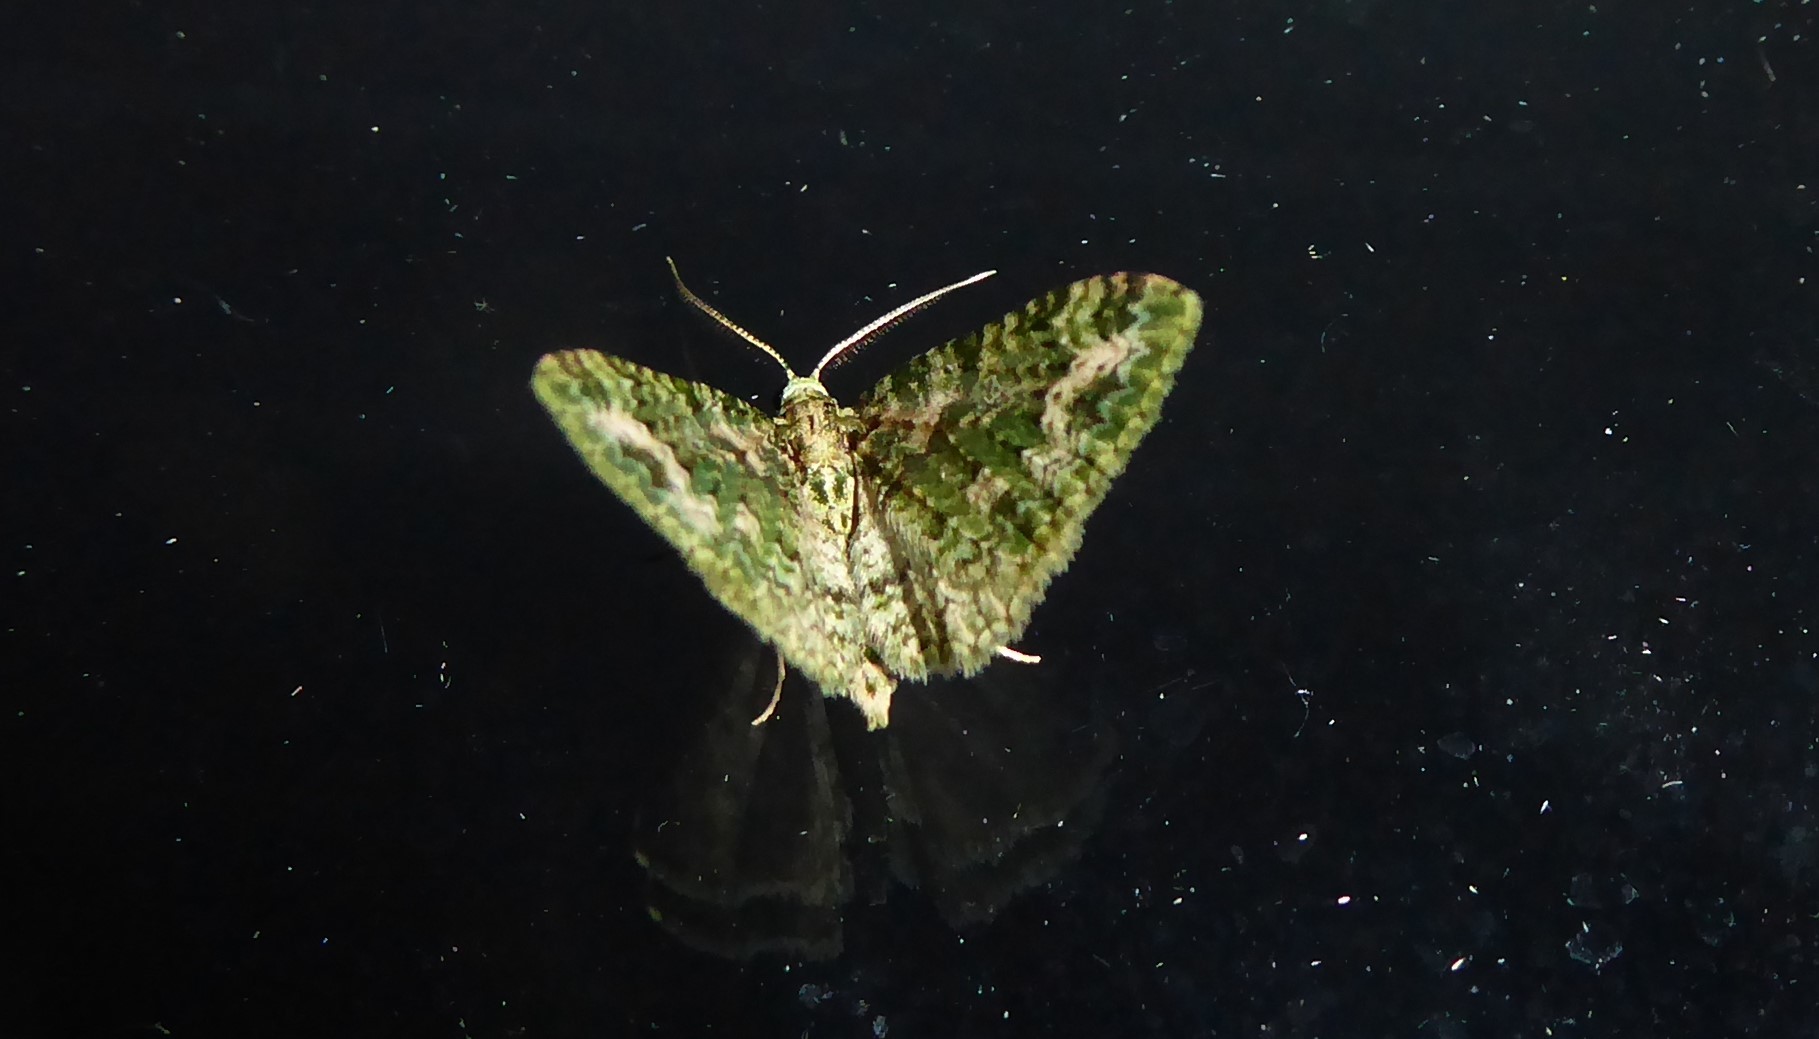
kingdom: Animalia
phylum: Arthropoda
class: Insecta
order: Lepidoptera
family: Geometridae
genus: Pasiphila
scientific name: Pasiphila muscosata
